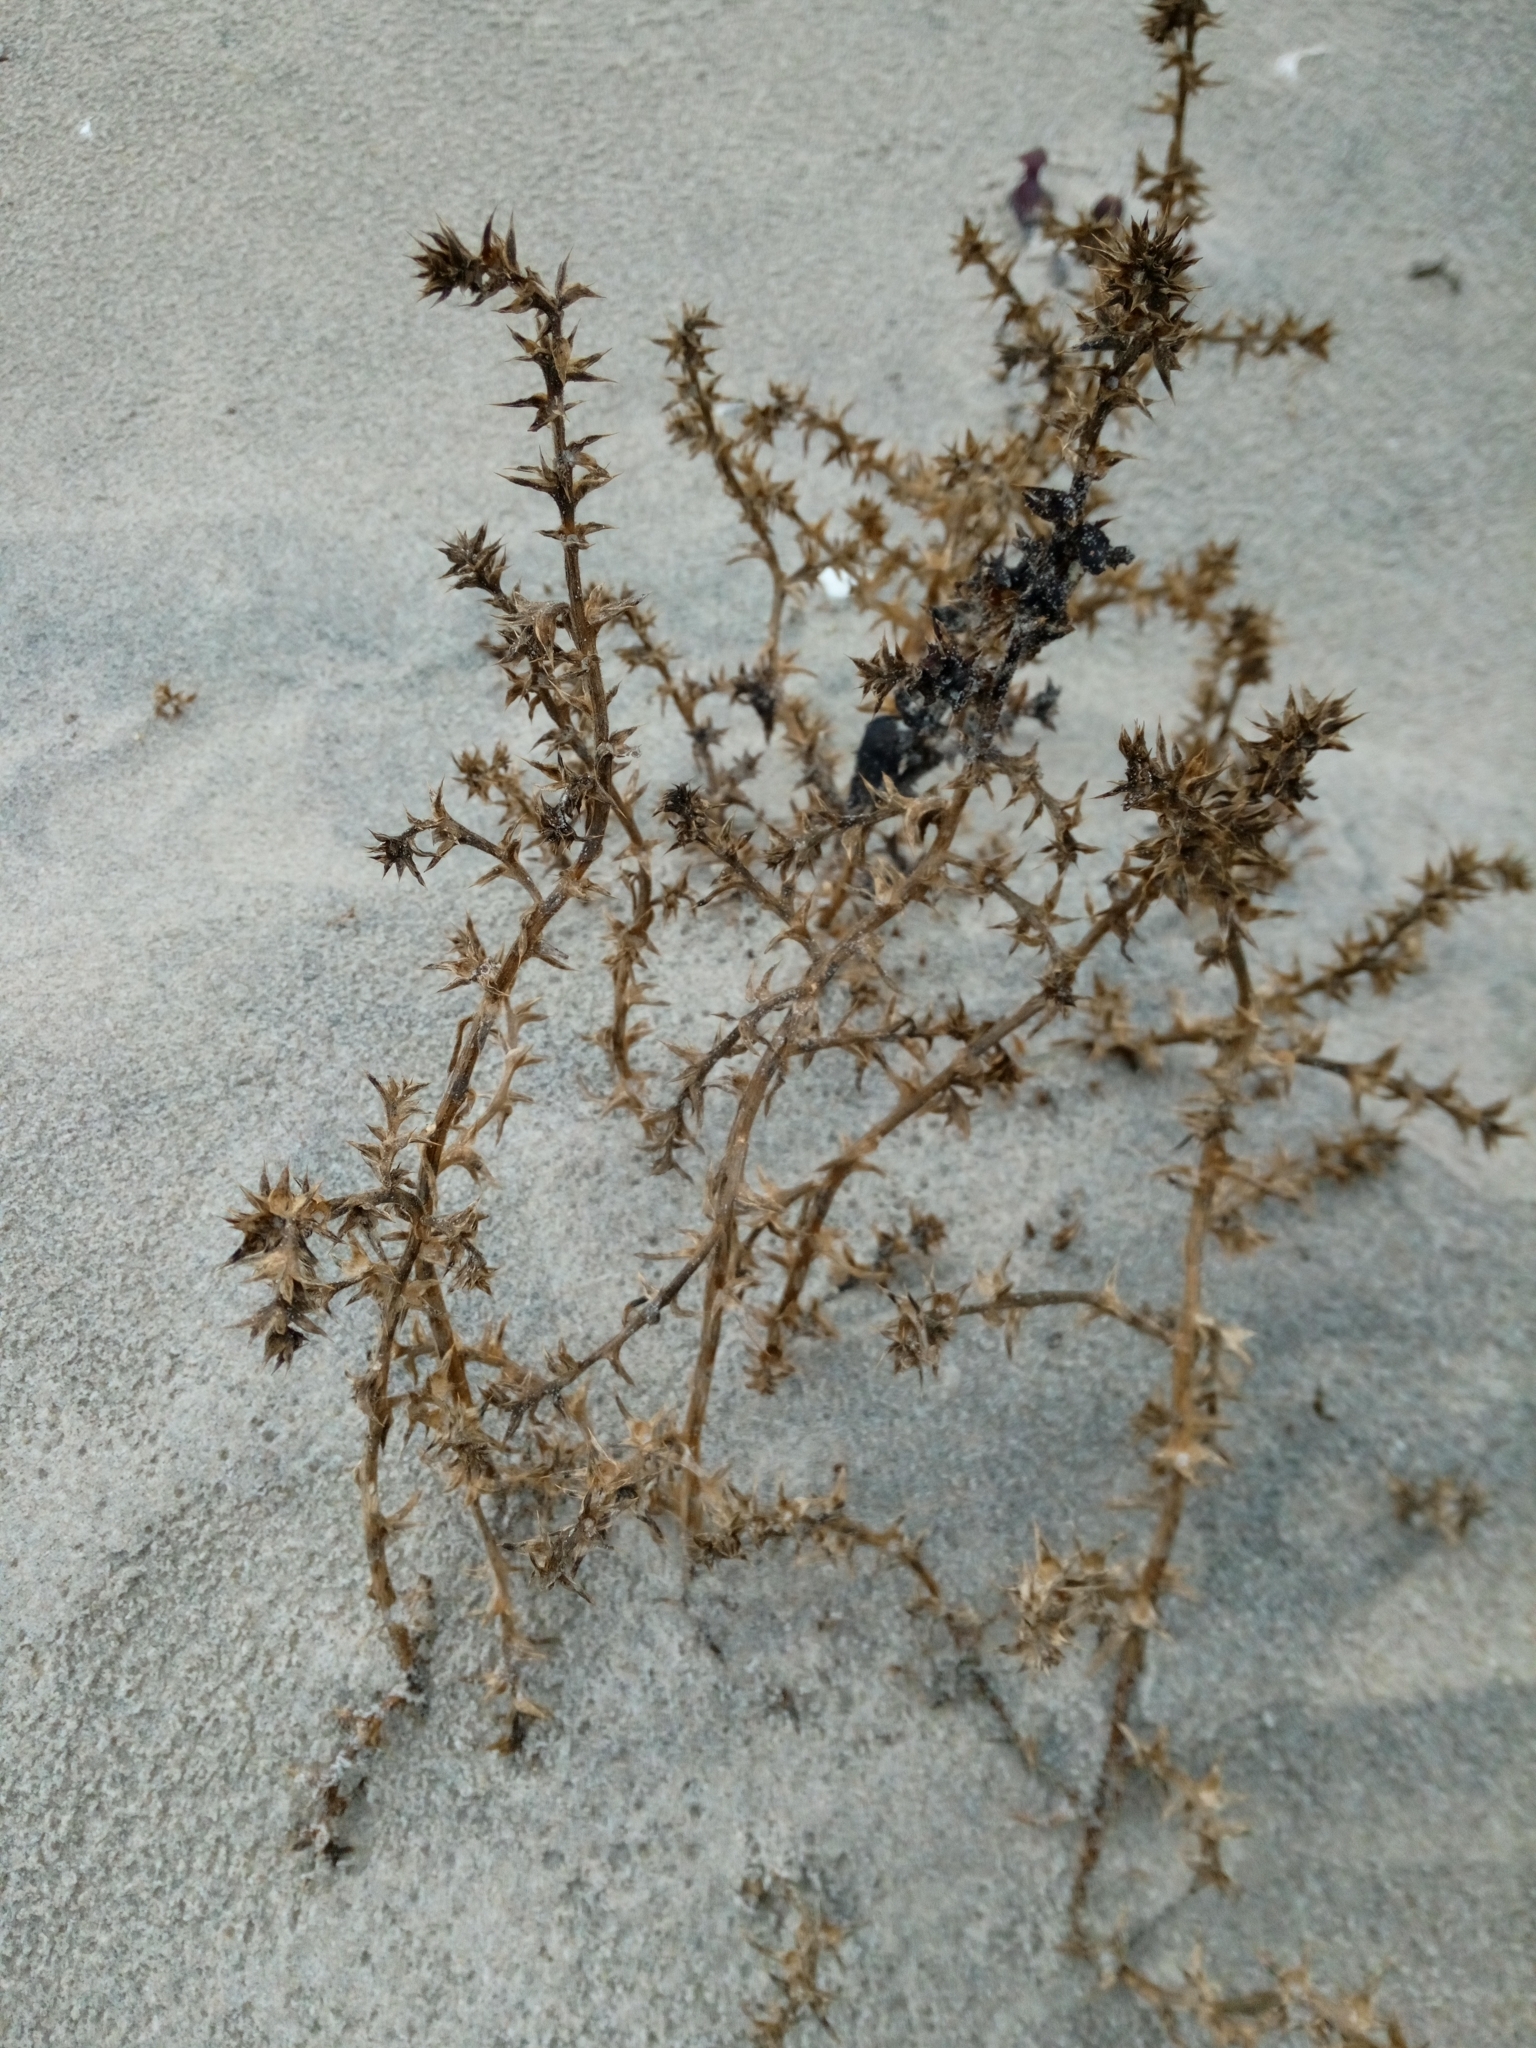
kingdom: Plantae
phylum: Tracheophyta
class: Magnoliopsida
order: Caryophyllales
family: Amaranthaceae
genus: Salsola
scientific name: Salsola kali
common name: Saltwort
